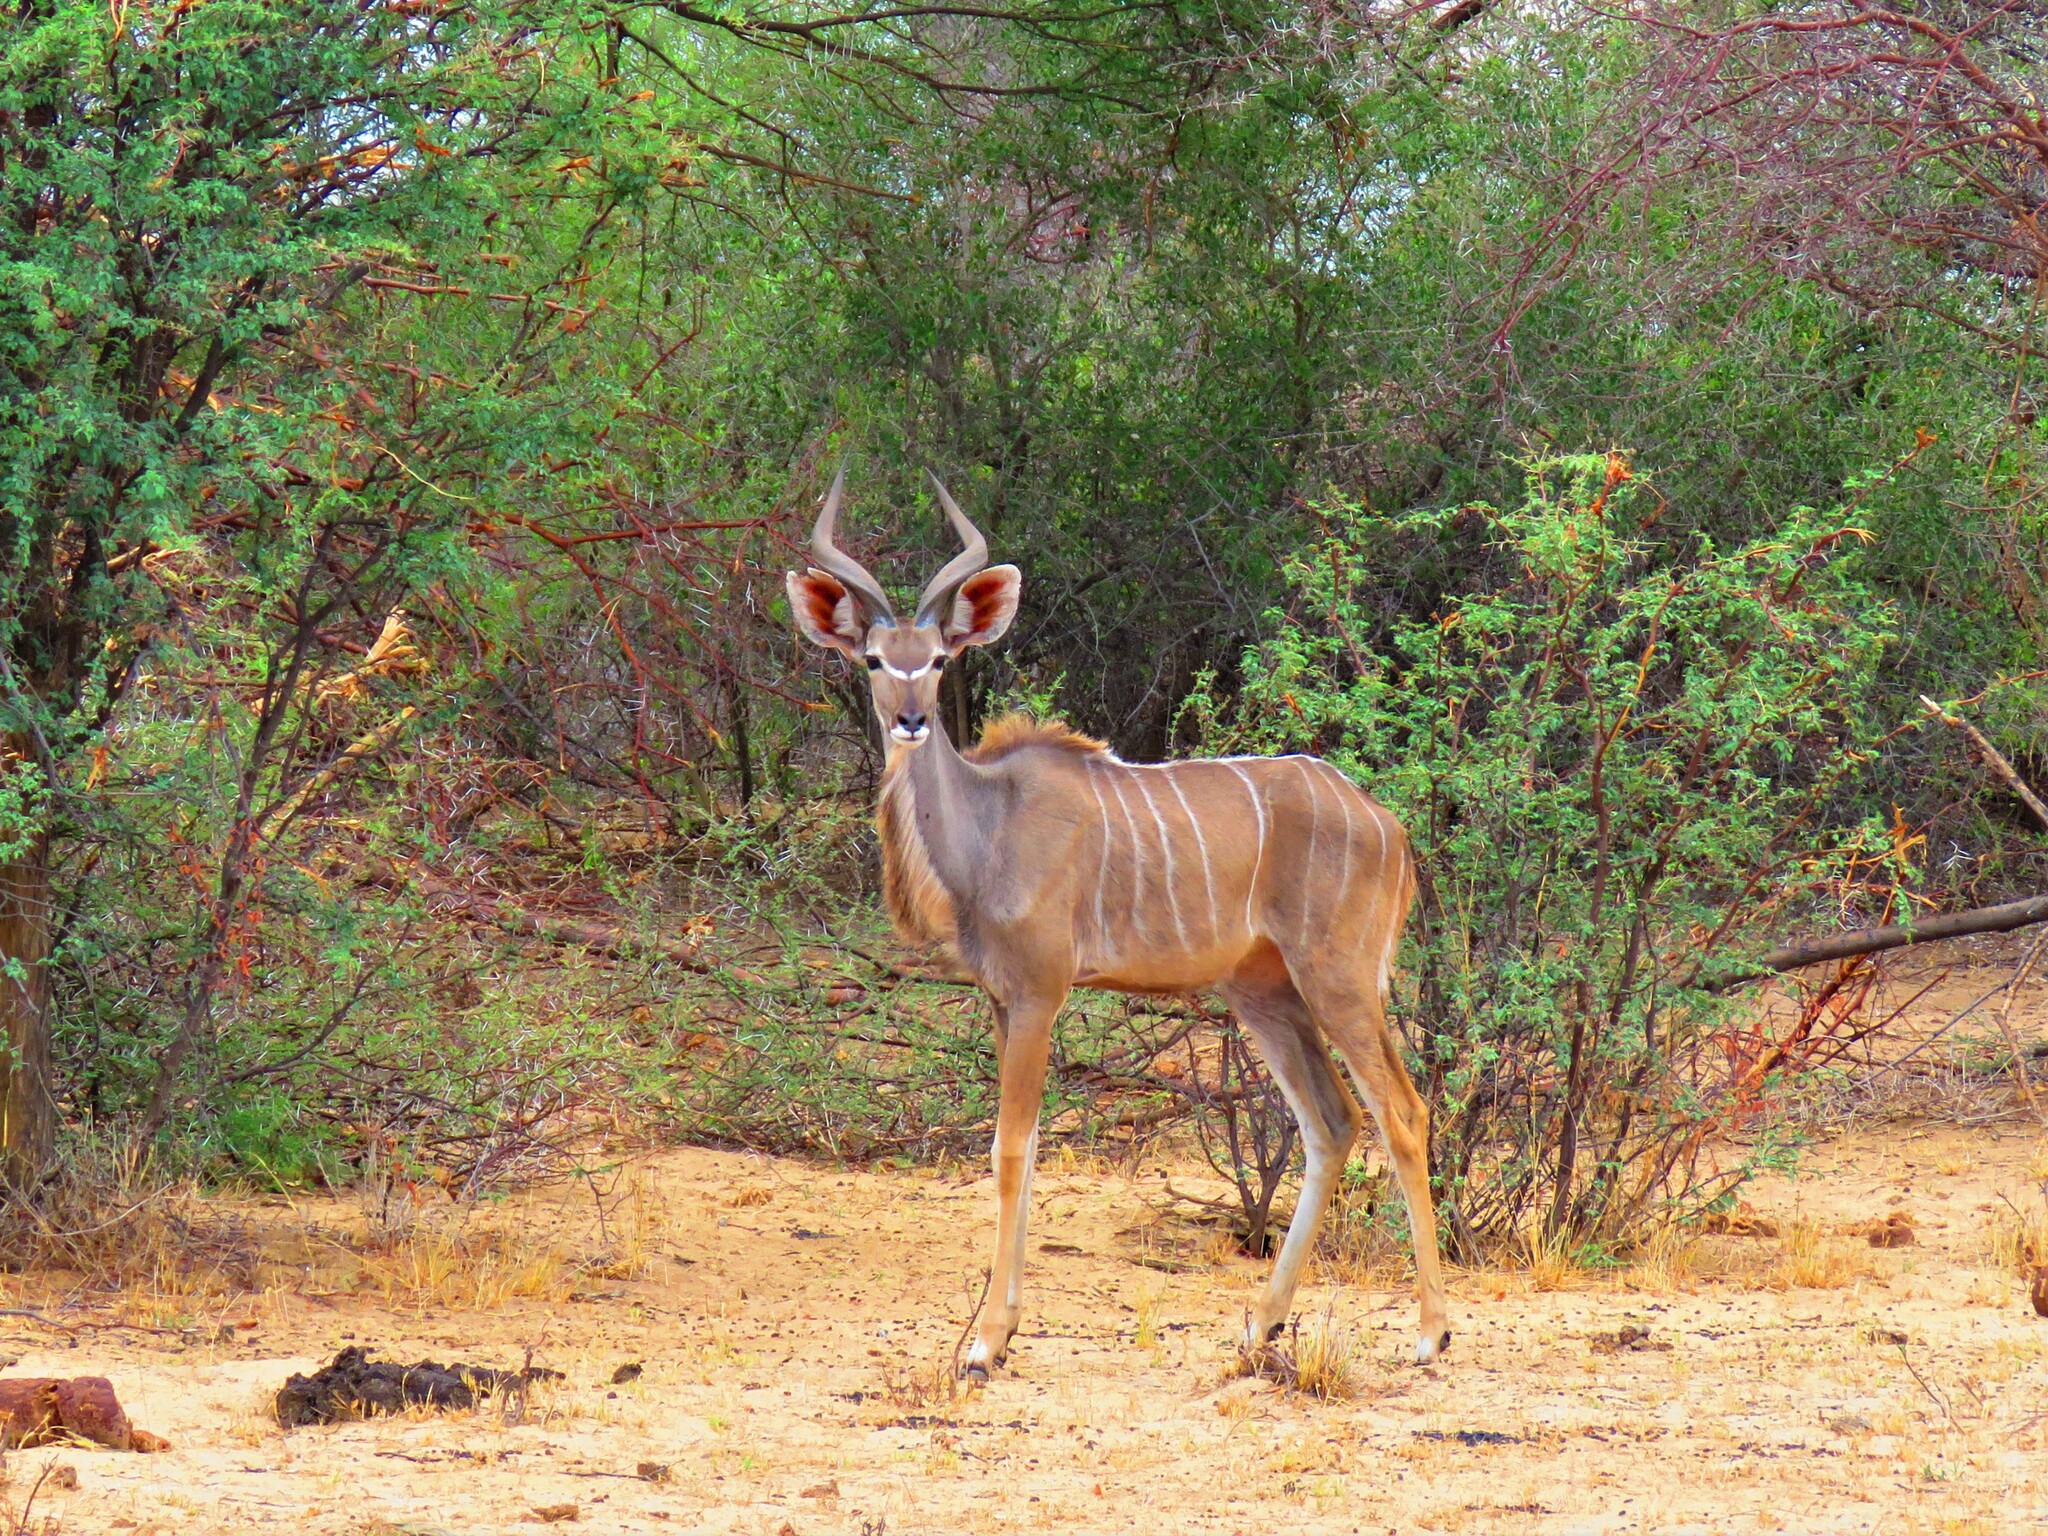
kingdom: Animalia
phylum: Chordata
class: Mammalia
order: Artiodactyla
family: Bovidae
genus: Tragelaphus
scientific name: Tragelaphus strepsiceros
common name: Greater kudu
